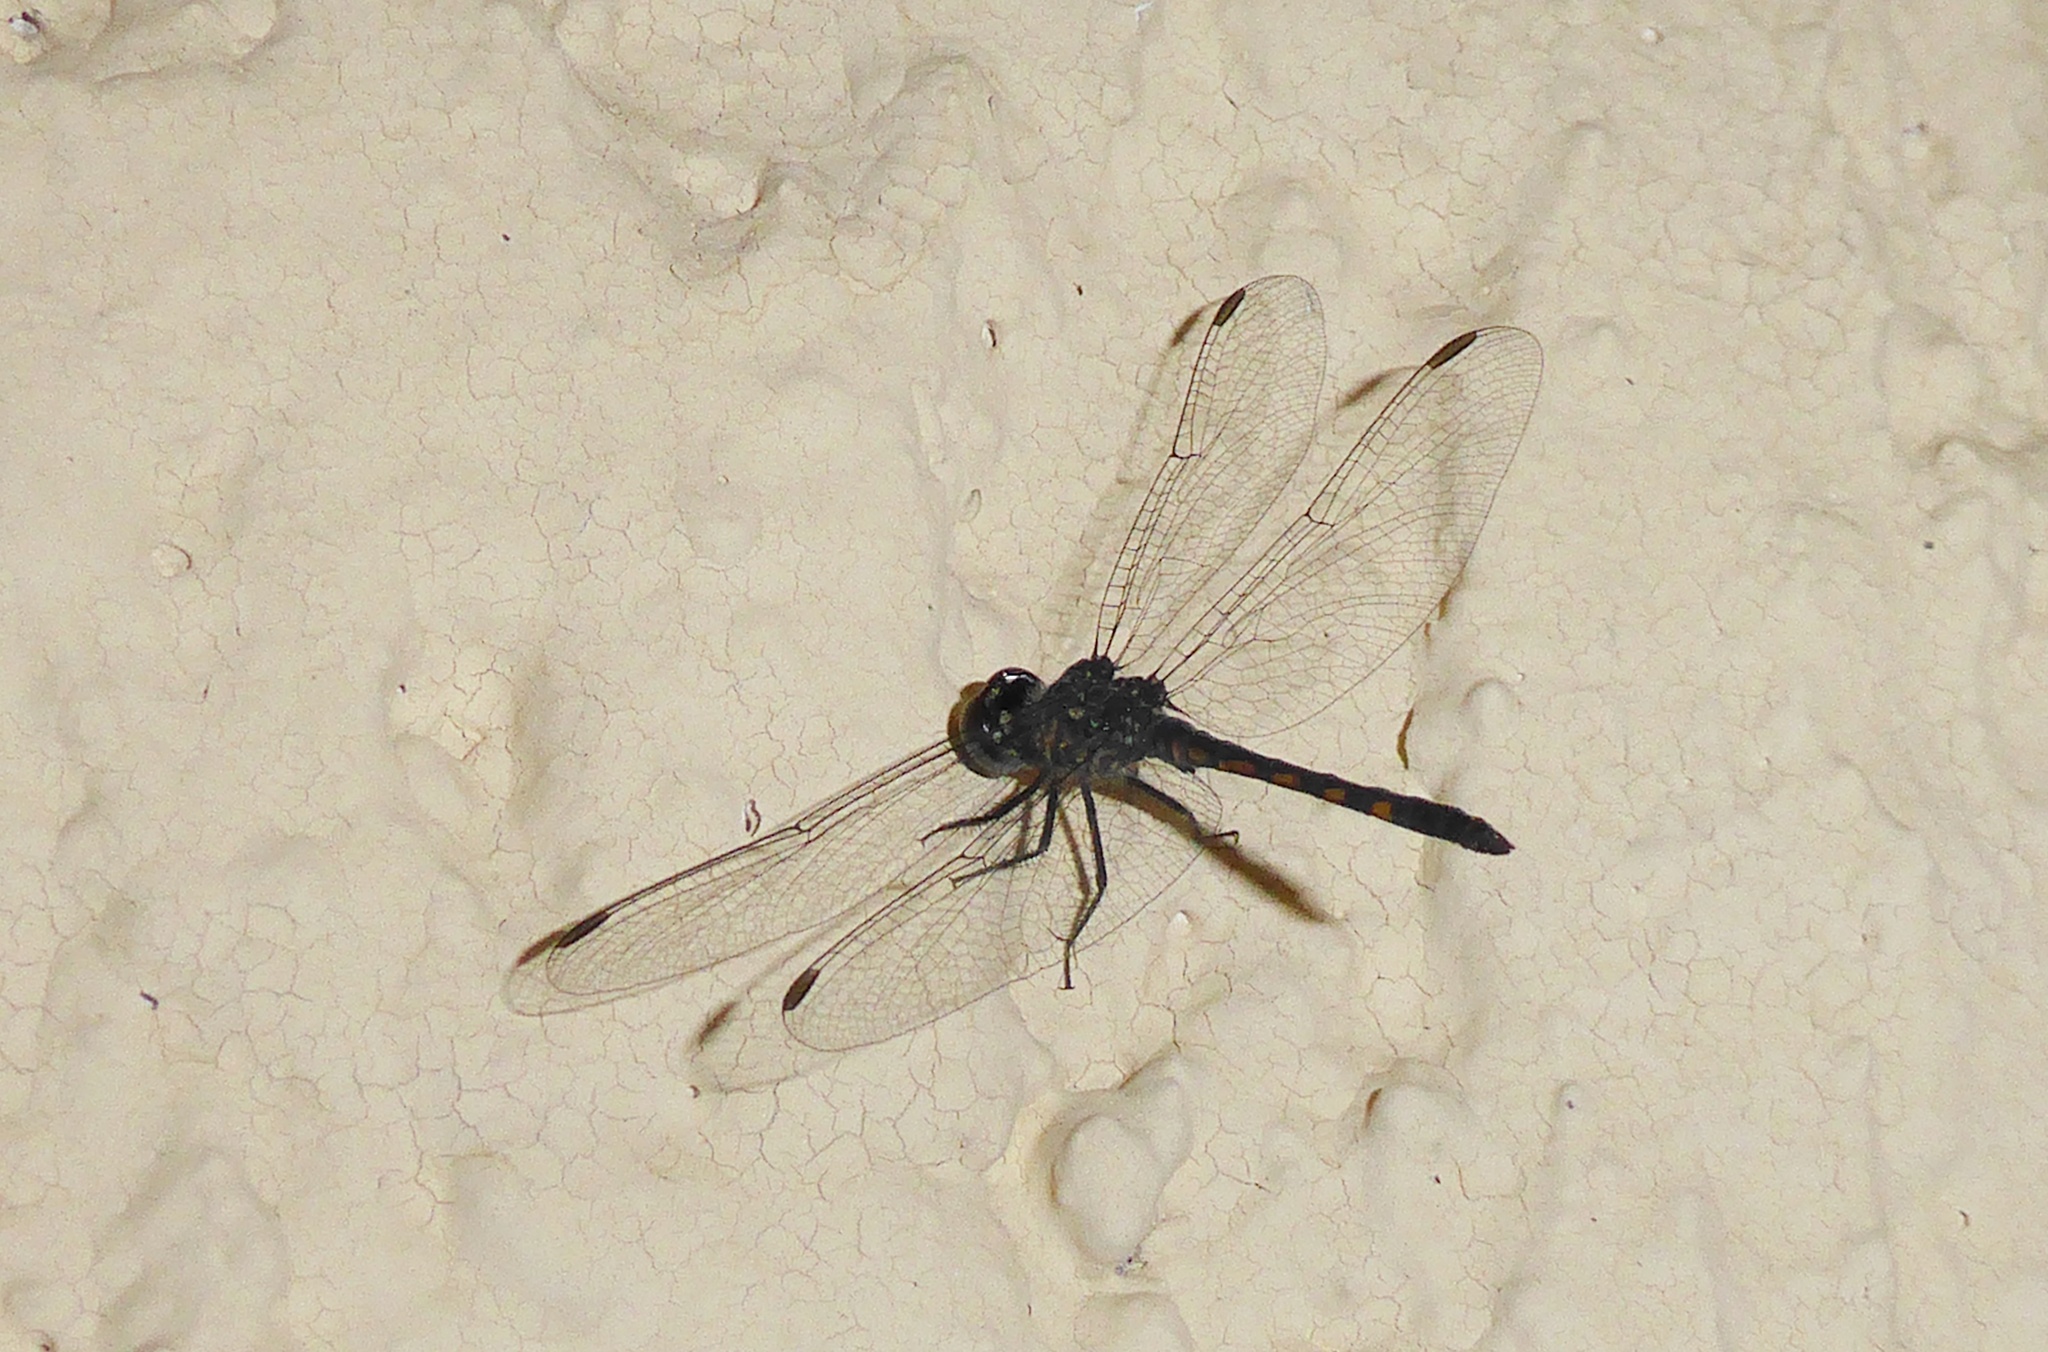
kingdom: Animalia
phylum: Arthropoda
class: Insecta
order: Odonata
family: Libellulidae
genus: Erythrodiplax
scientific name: Erythrodiplax berenice
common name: Seaside dragonlet
